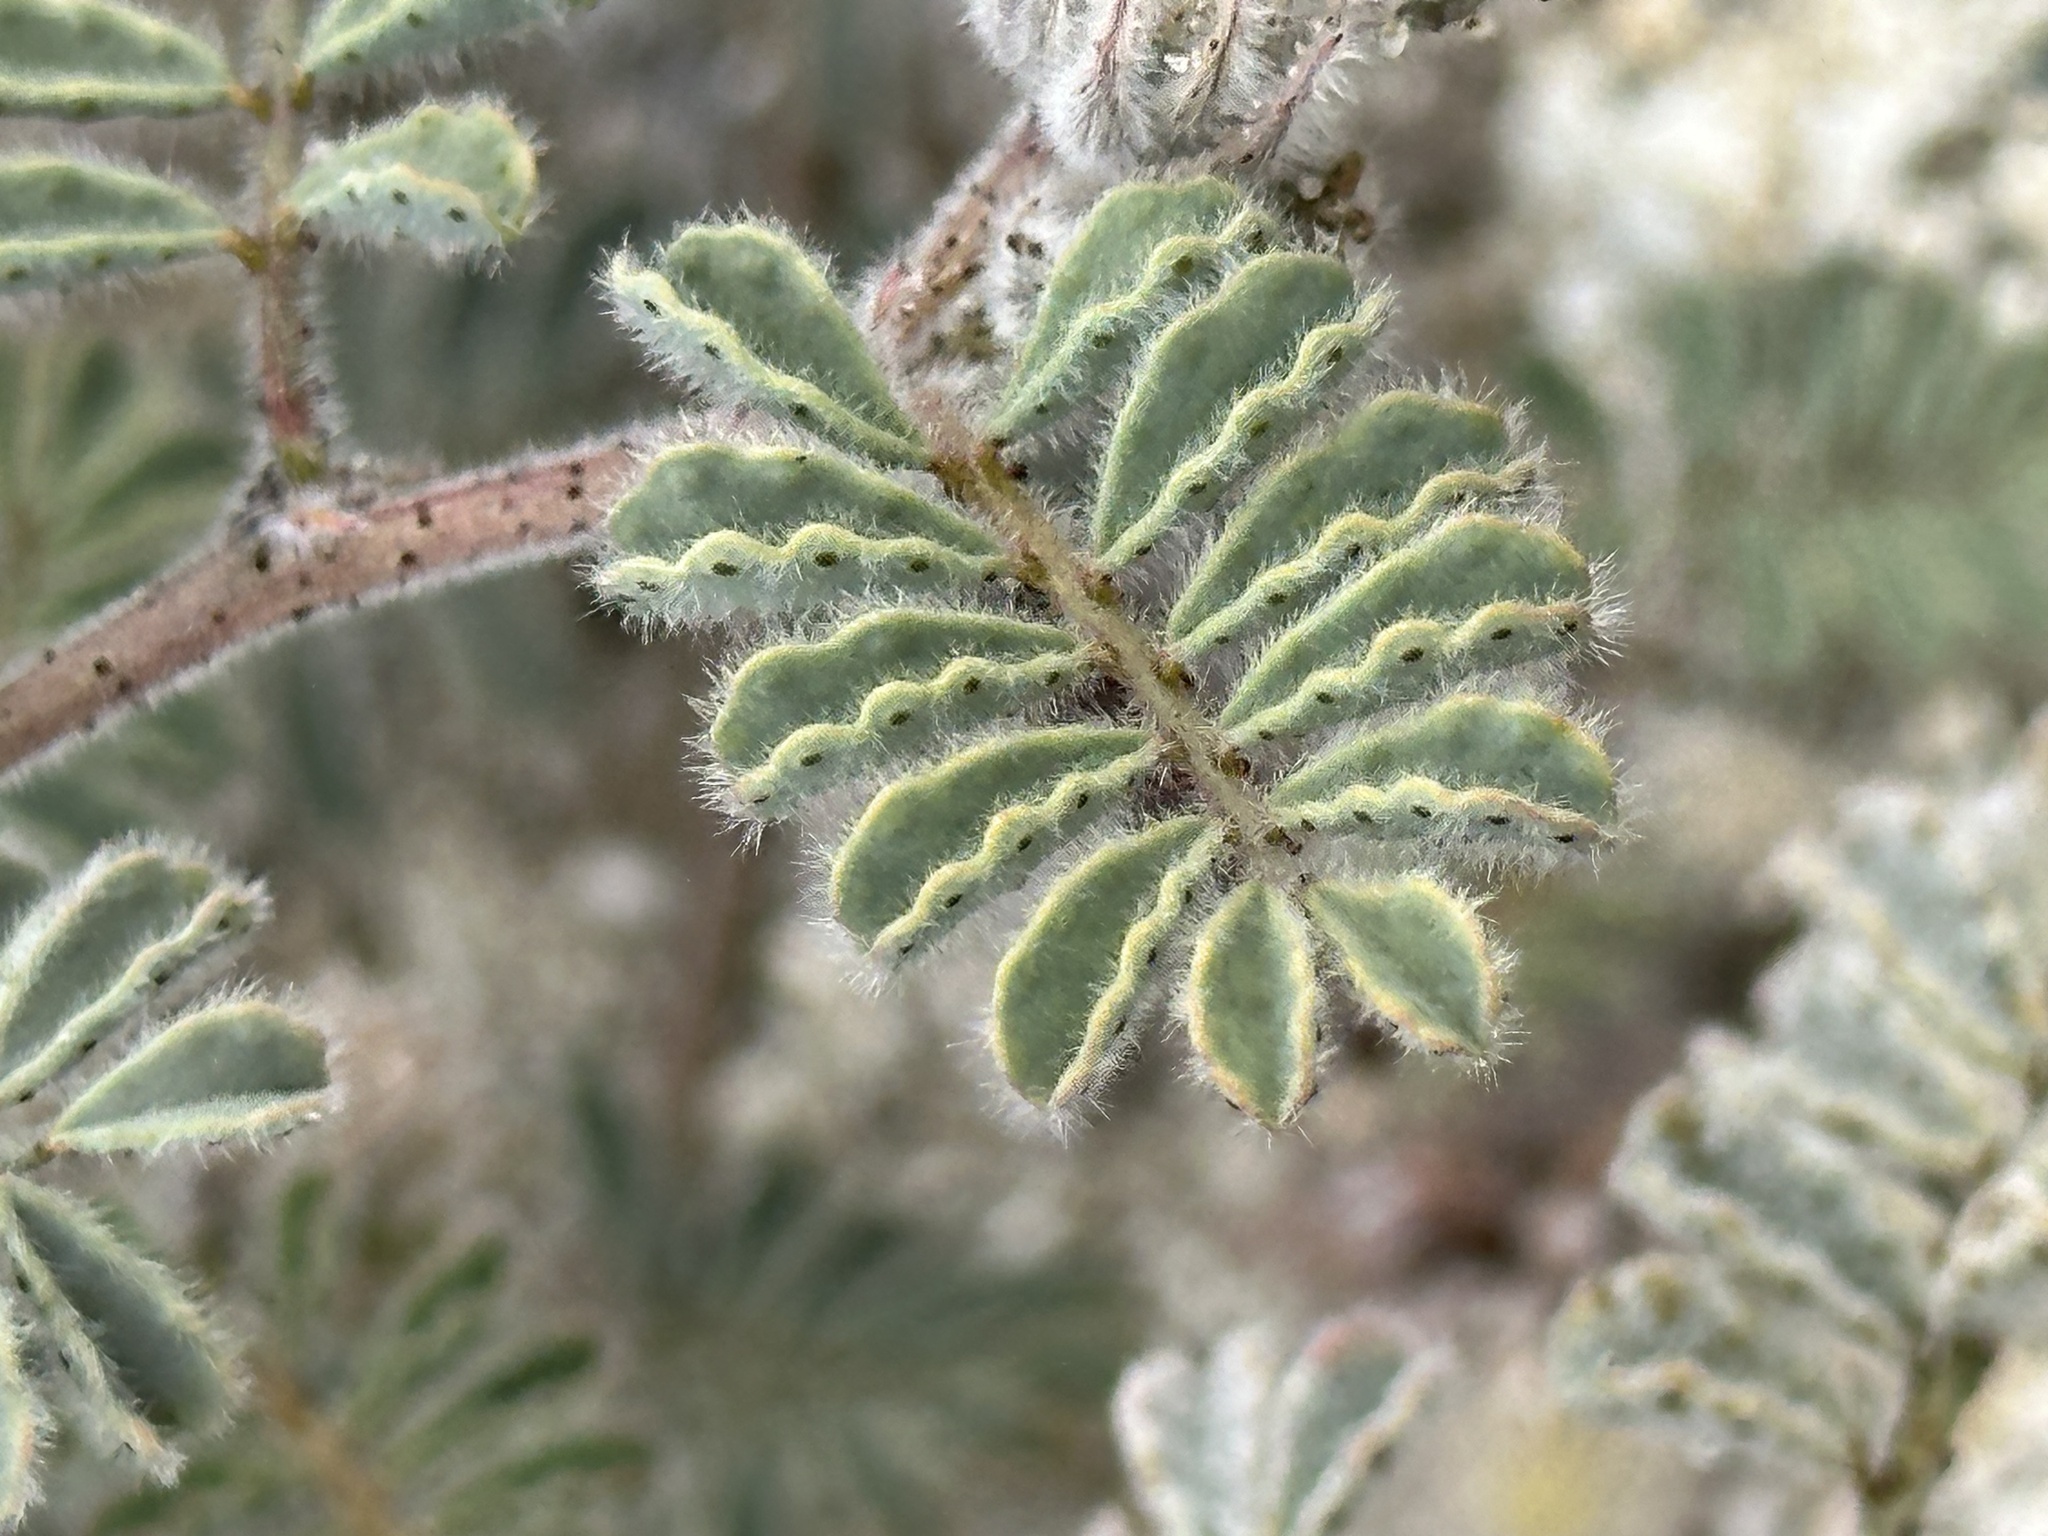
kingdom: Plantae
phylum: Tracheophyta
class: Magnoliopsida
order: Fabales
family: Fabaceae
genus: Dalea
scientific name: Dalea mollissima
